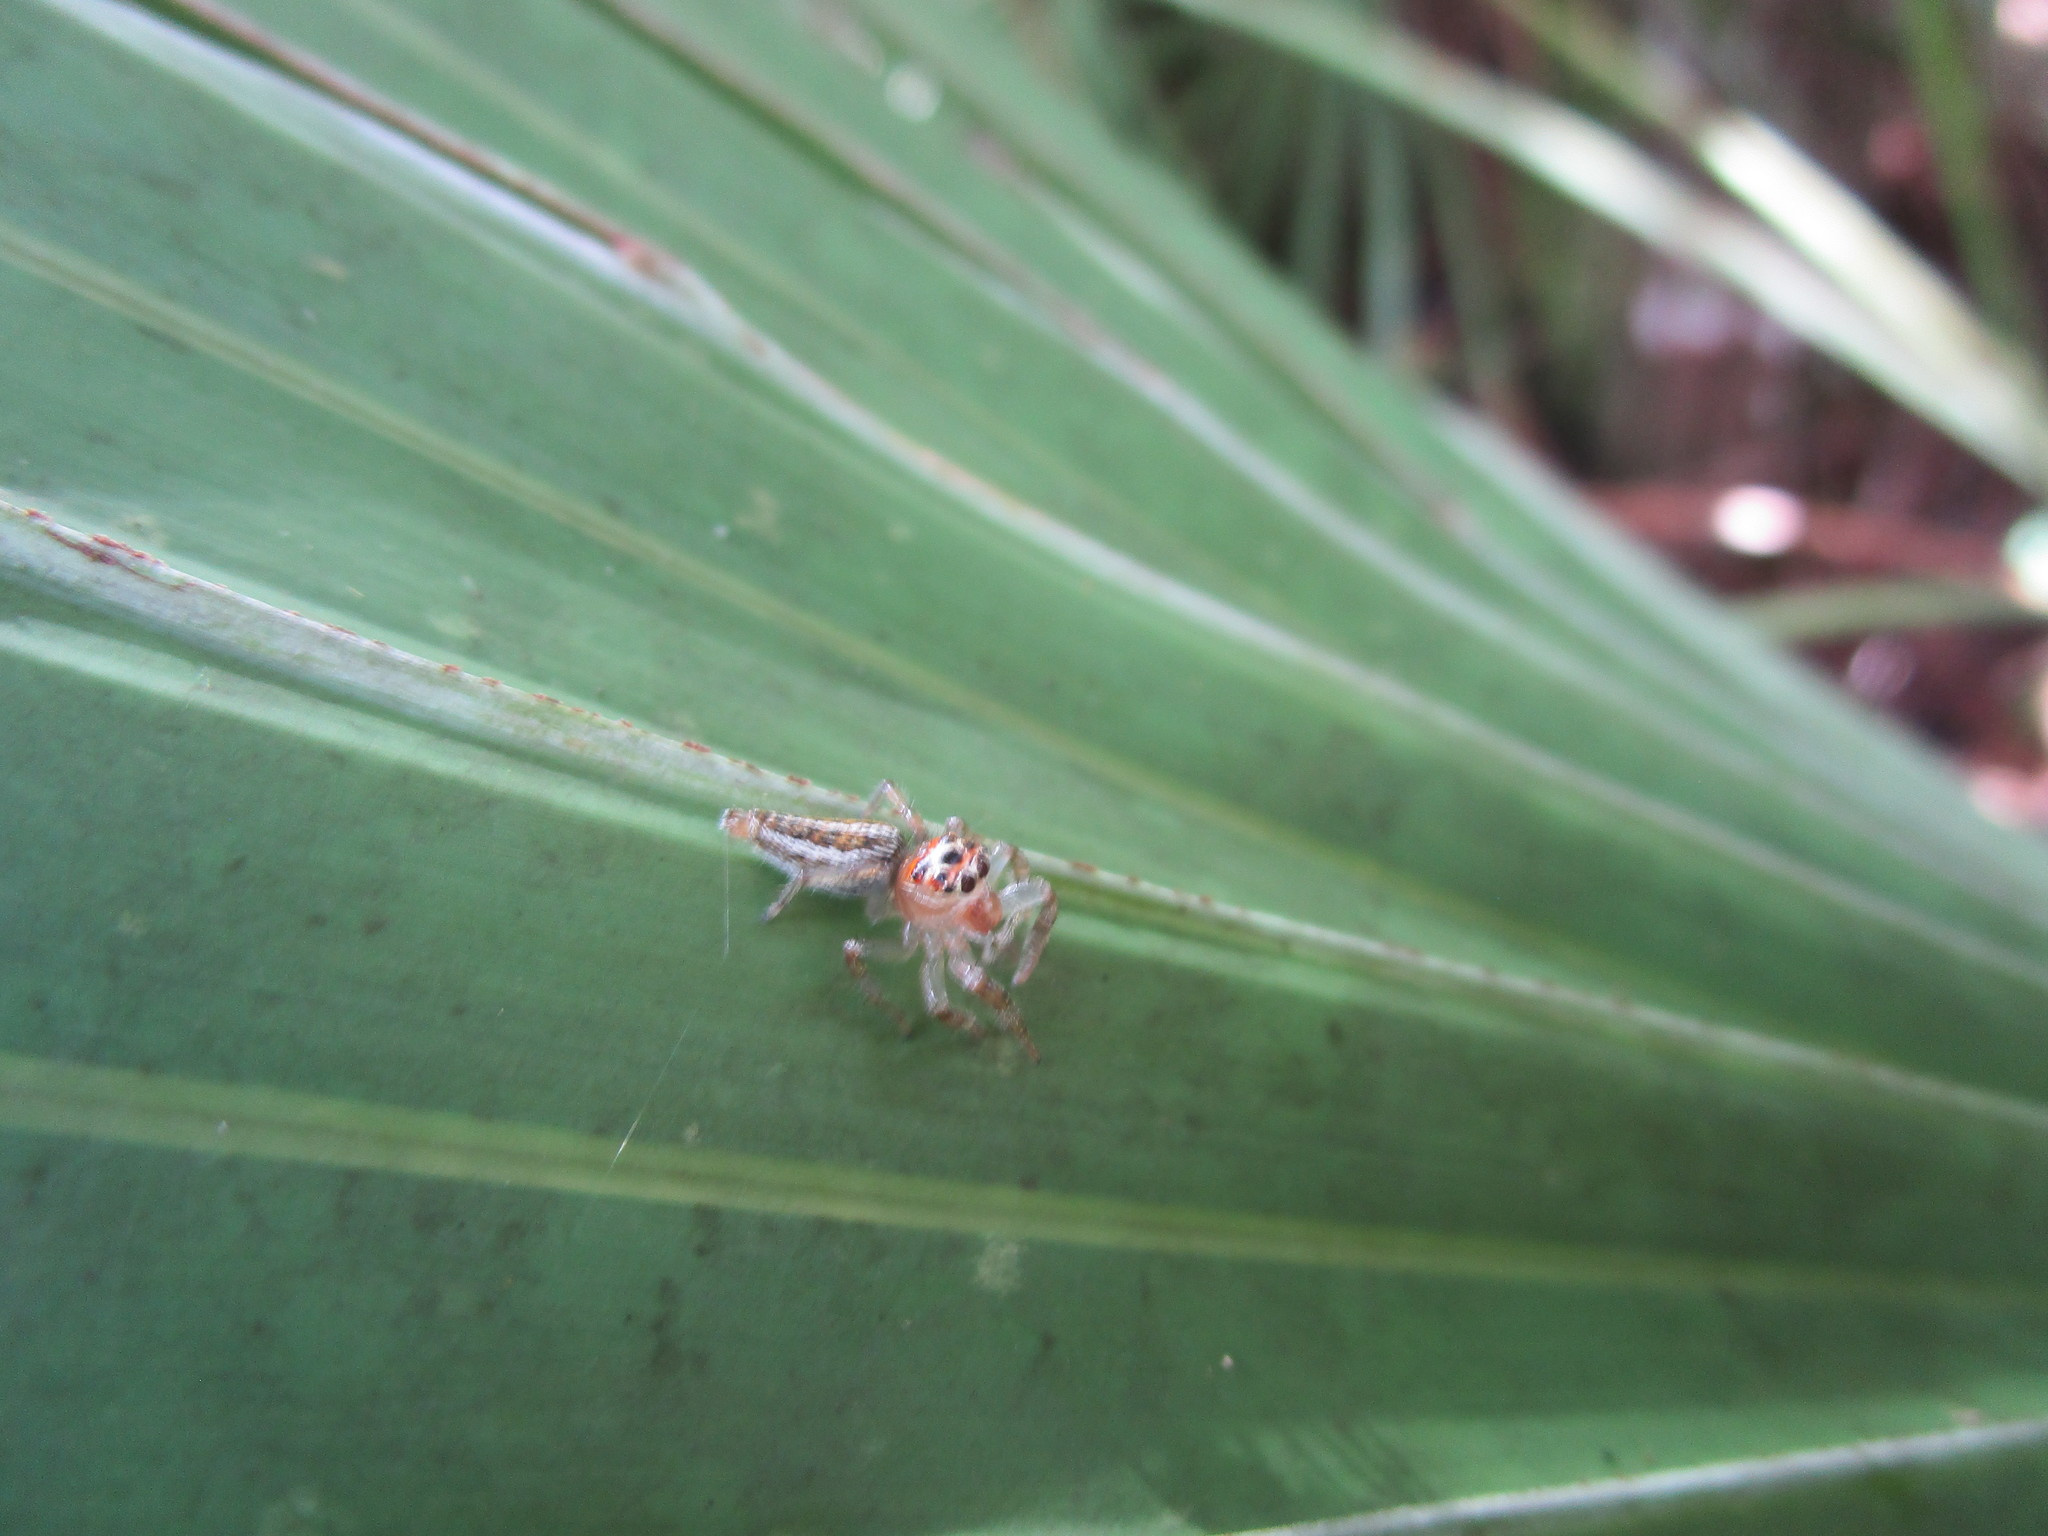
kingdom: Animalia
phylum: Arthropoda
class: Arachnida
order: Araneae
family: Salticidae
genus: Colonus
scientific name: Colonus sylvanus
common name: Jumping spiders
